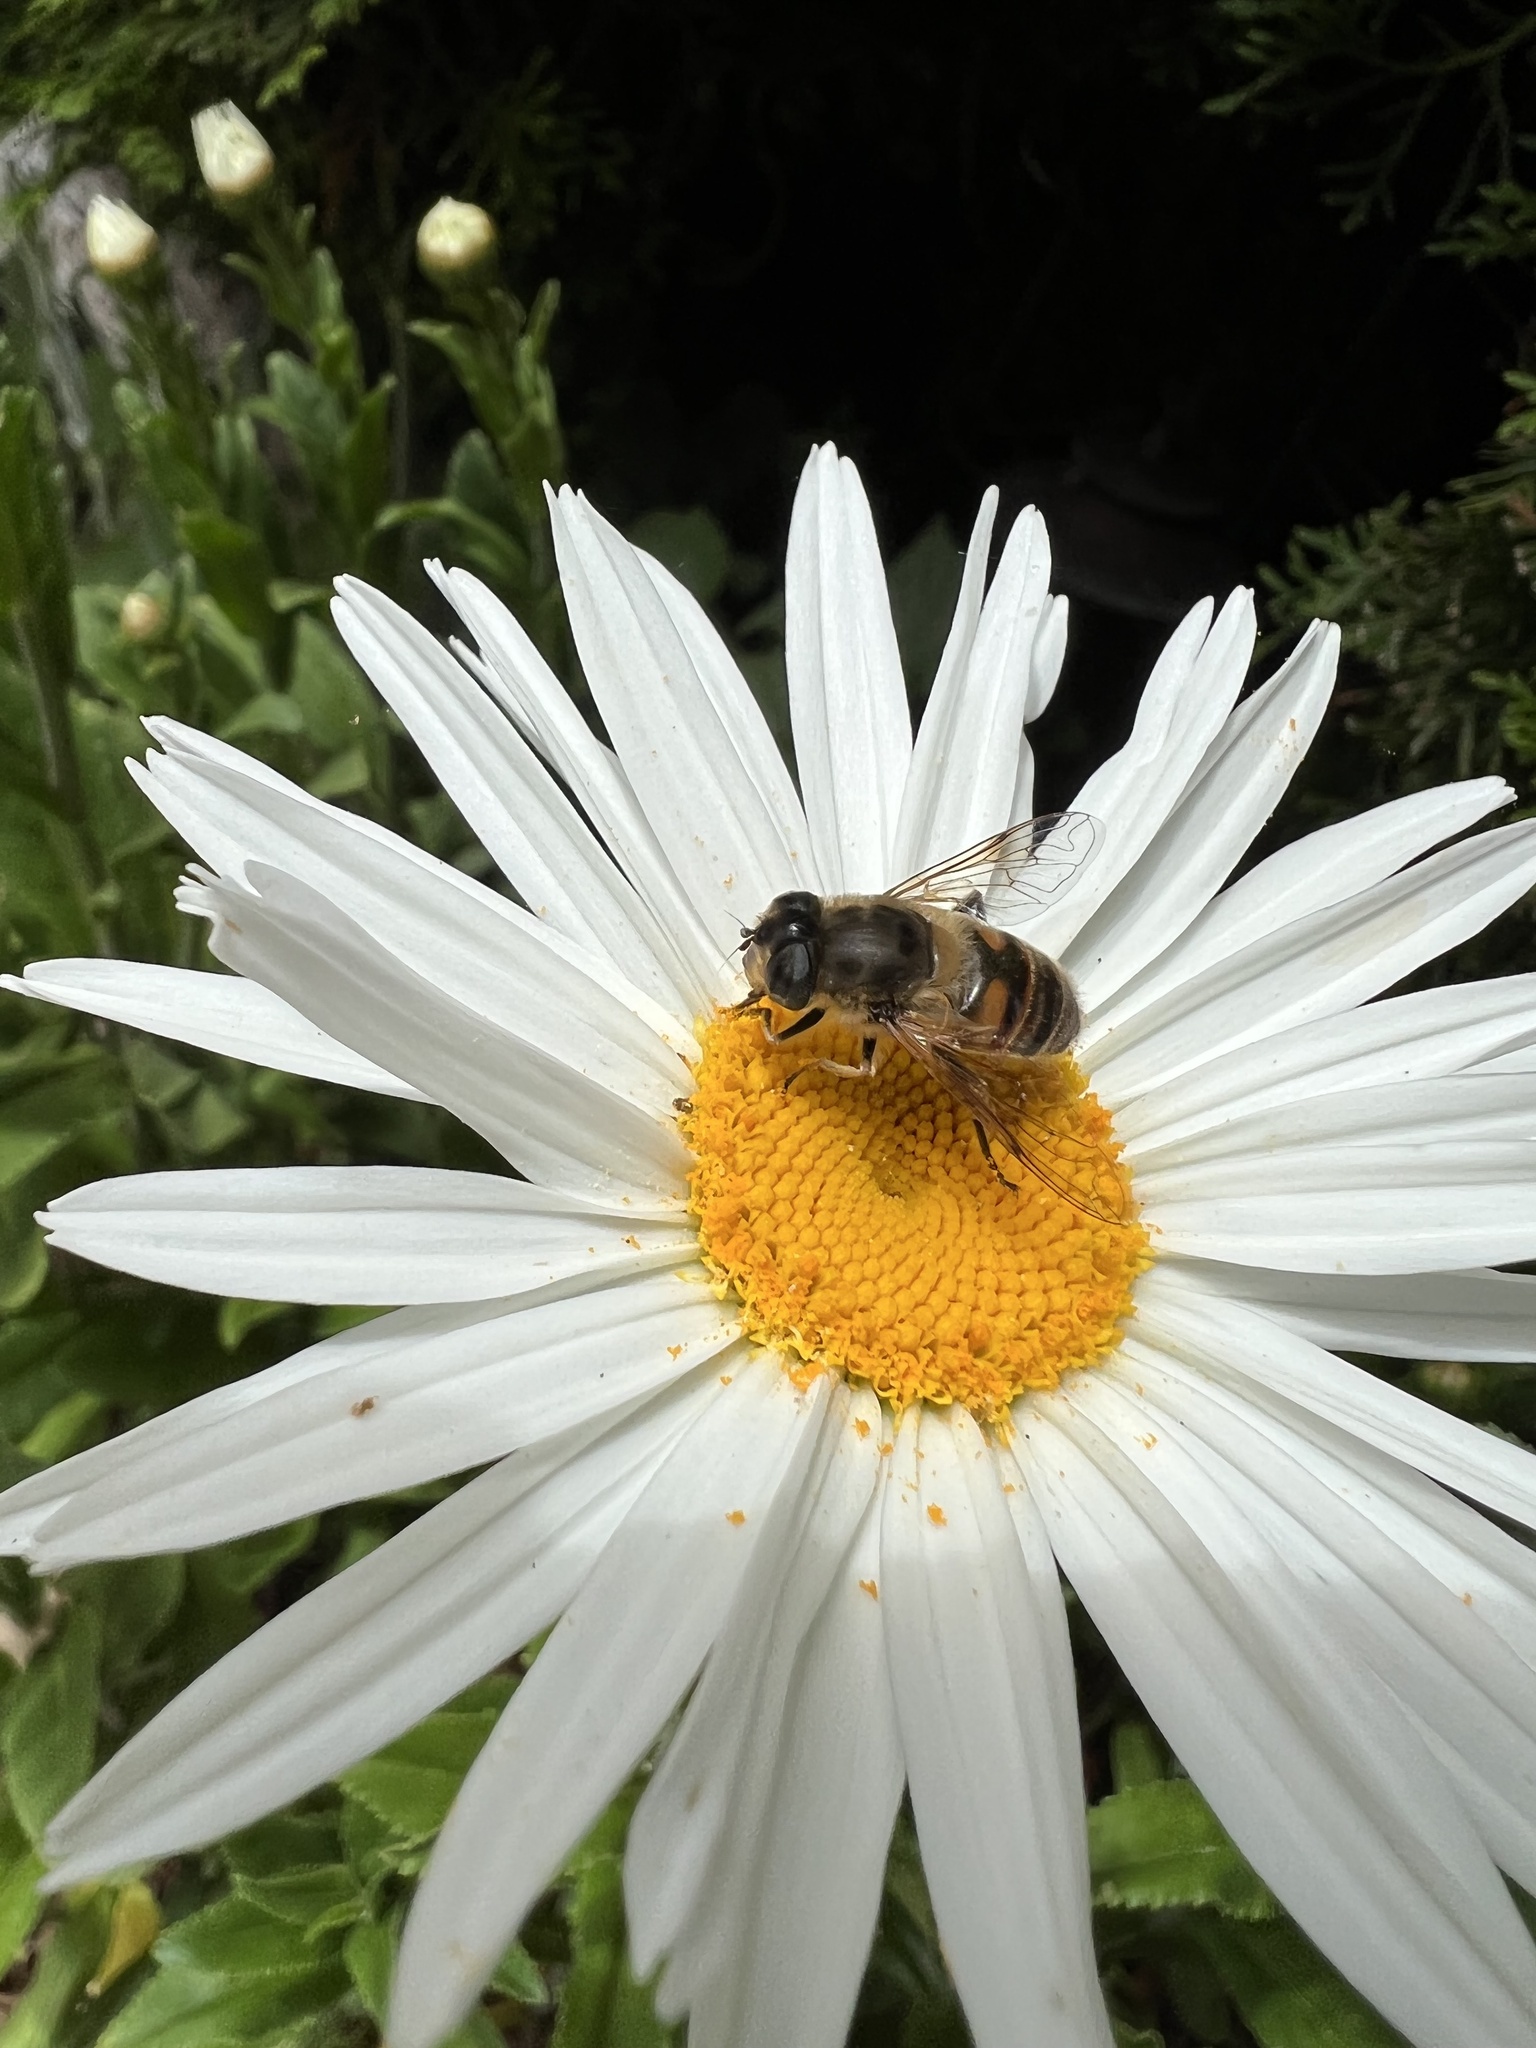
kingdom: Animalia
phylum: Arthropoda
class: Insecta
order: Diptera
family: Syrphidae
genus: Eristalis
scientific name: Eristalis tenax
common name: Drone fly
